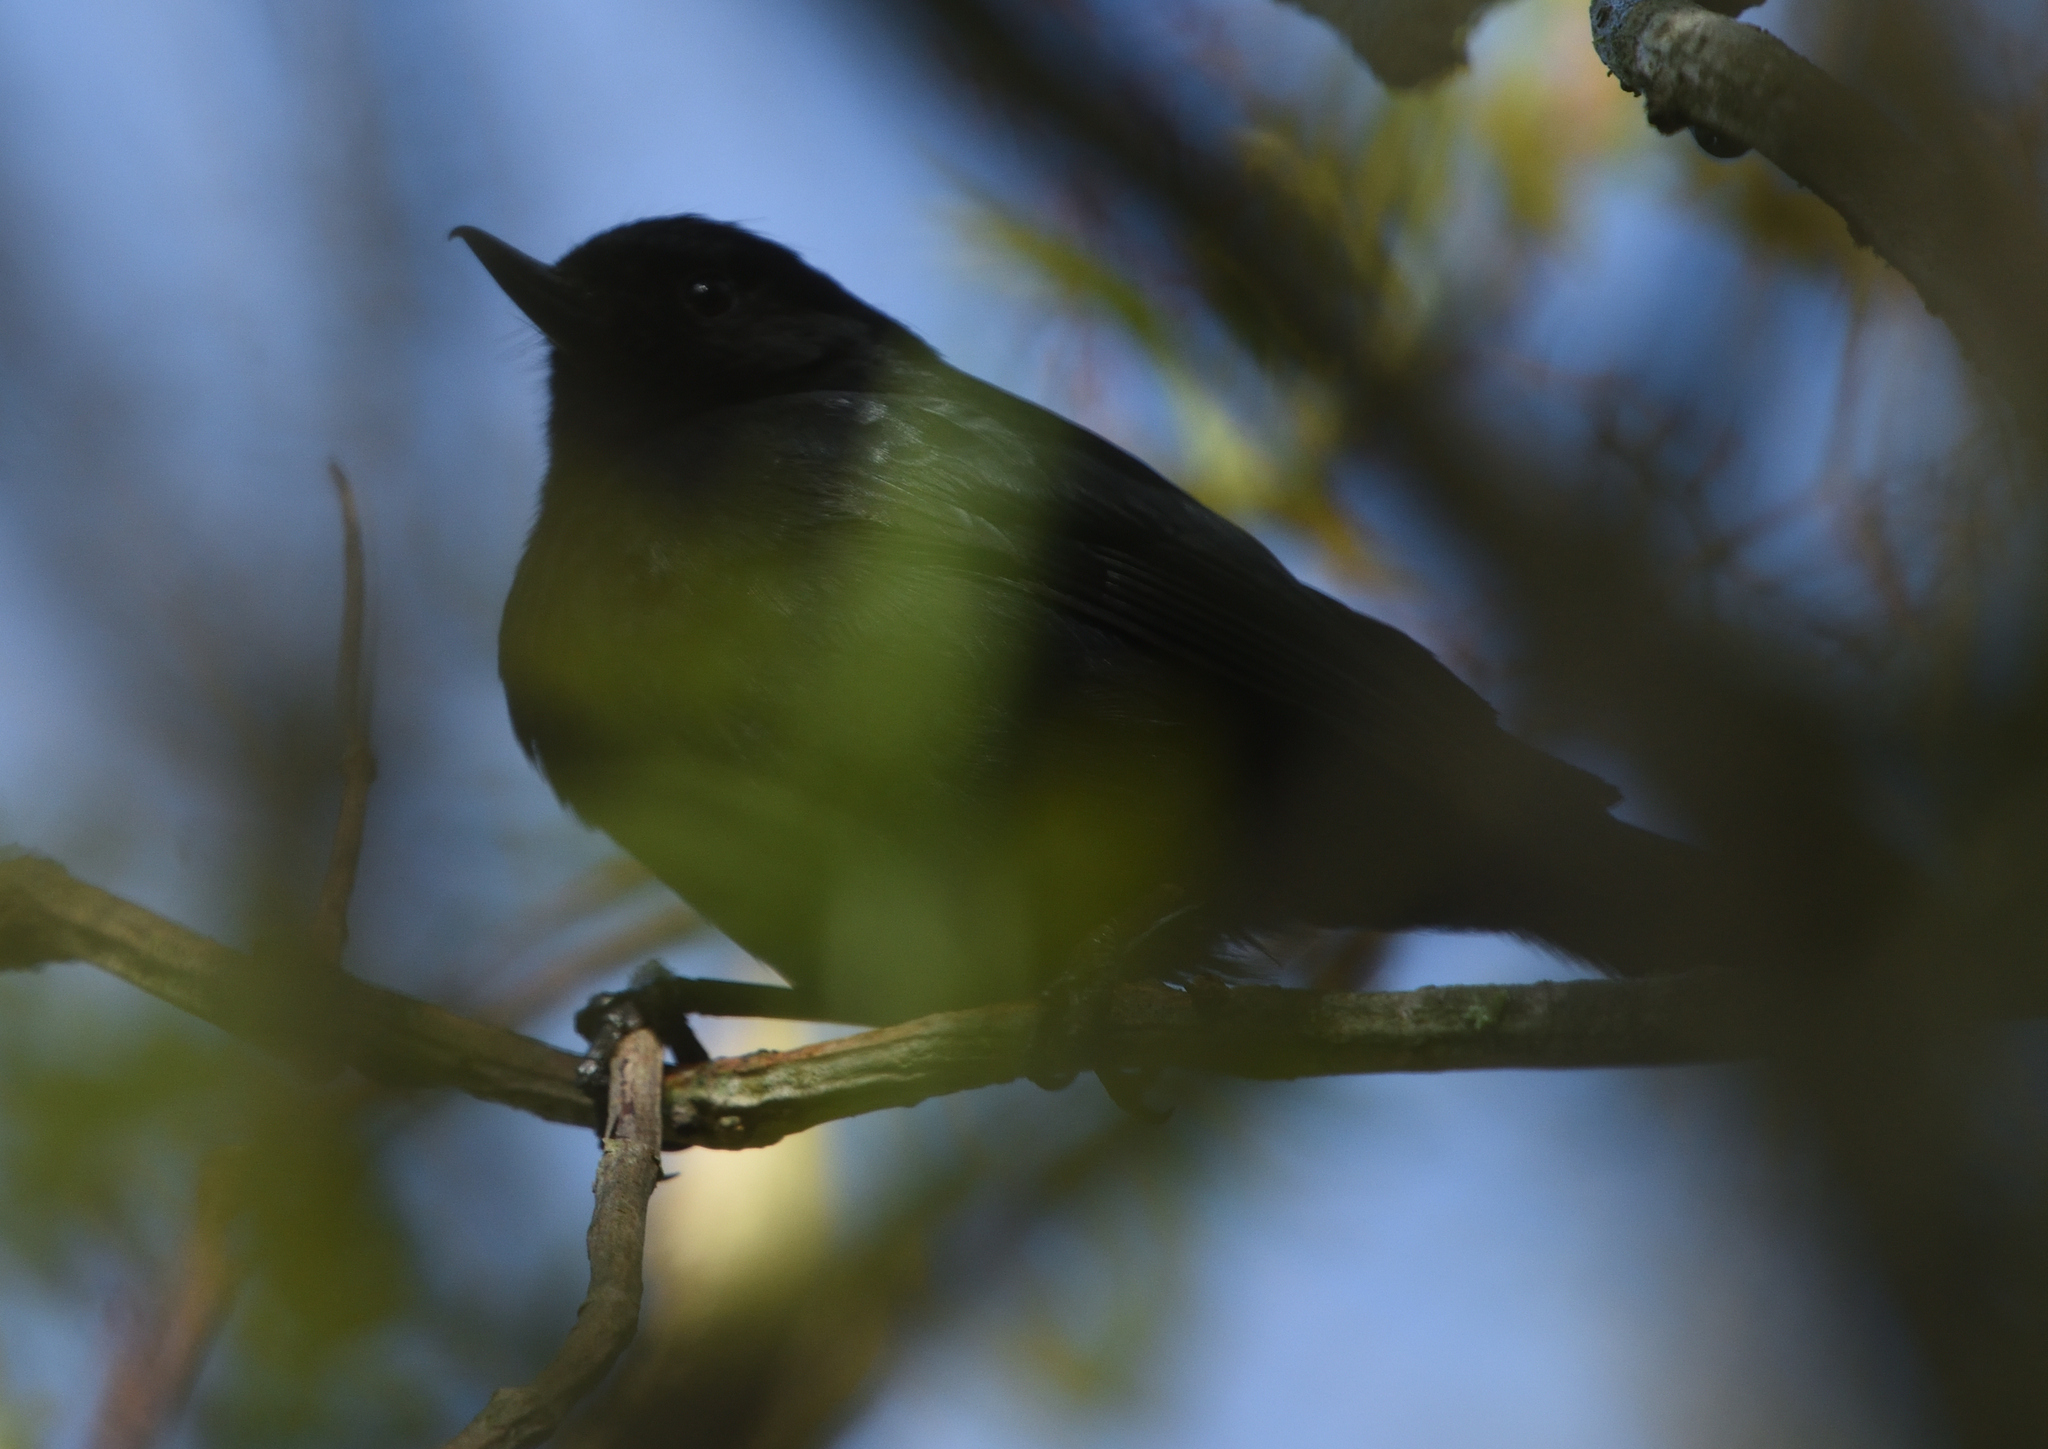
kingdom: Animalia
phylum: Chordata
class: Aves
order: Passeriformes
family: Thraupidae
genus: Diglossa
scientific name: Diglossa humeralis
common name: Black flowerpiercer
